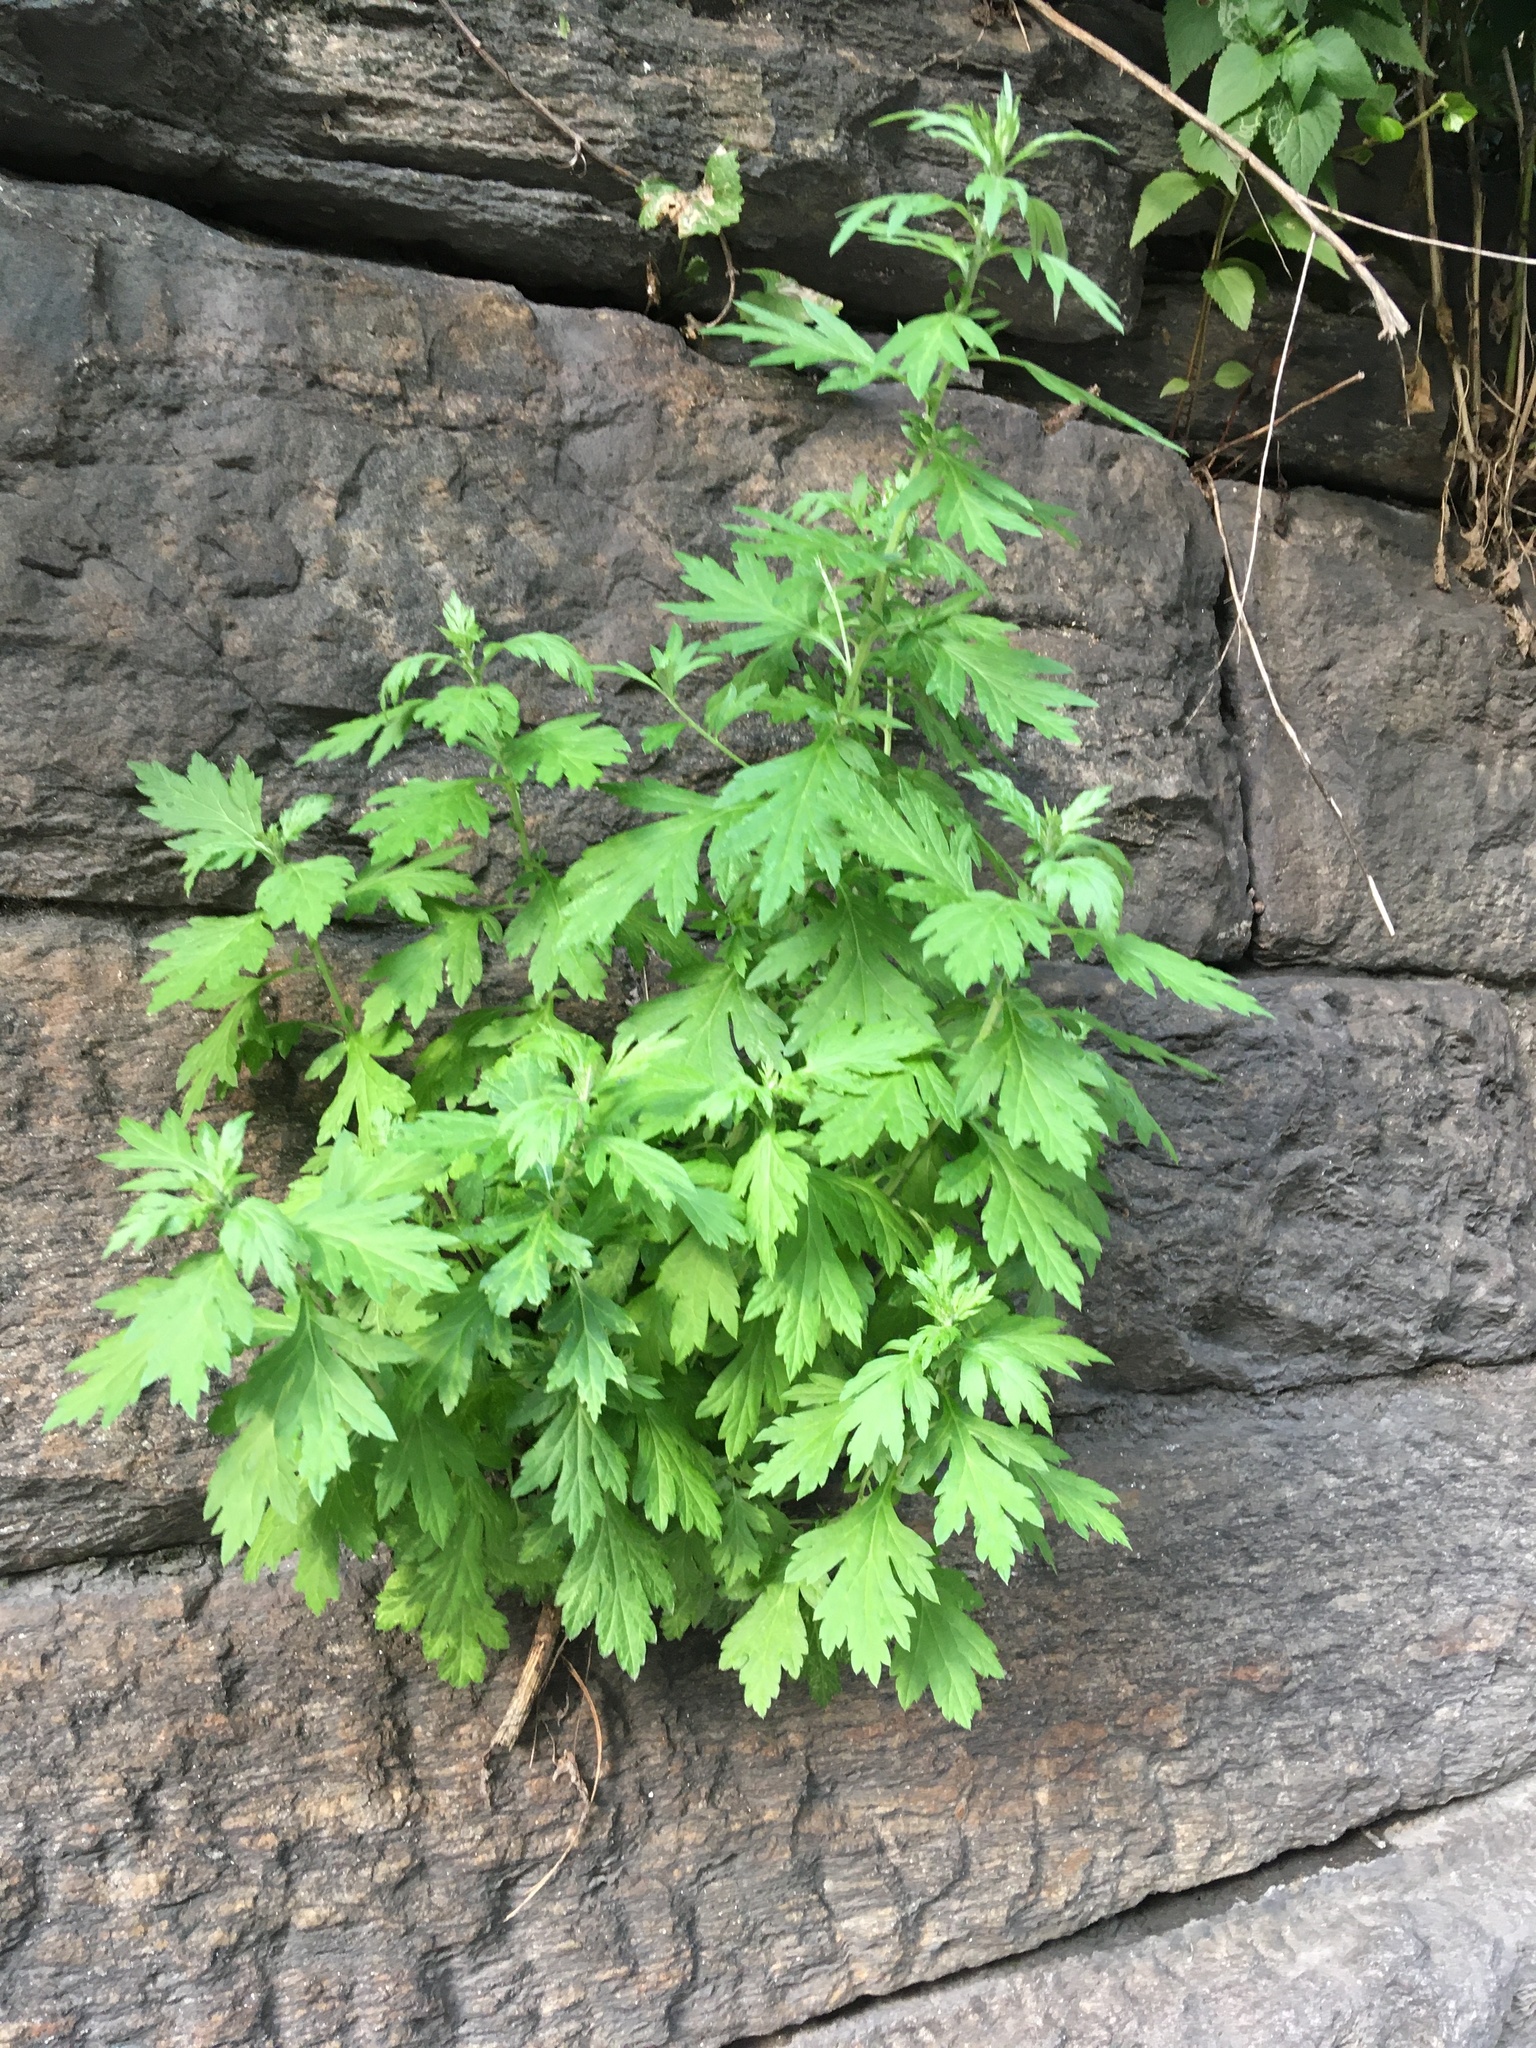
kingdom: Plantae
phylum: Tracheophyta
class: Magnoliopsida
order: Asterales
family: Asteraceae
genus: Artemisia
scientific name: Artemisia vulgaris
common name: Mugwort
